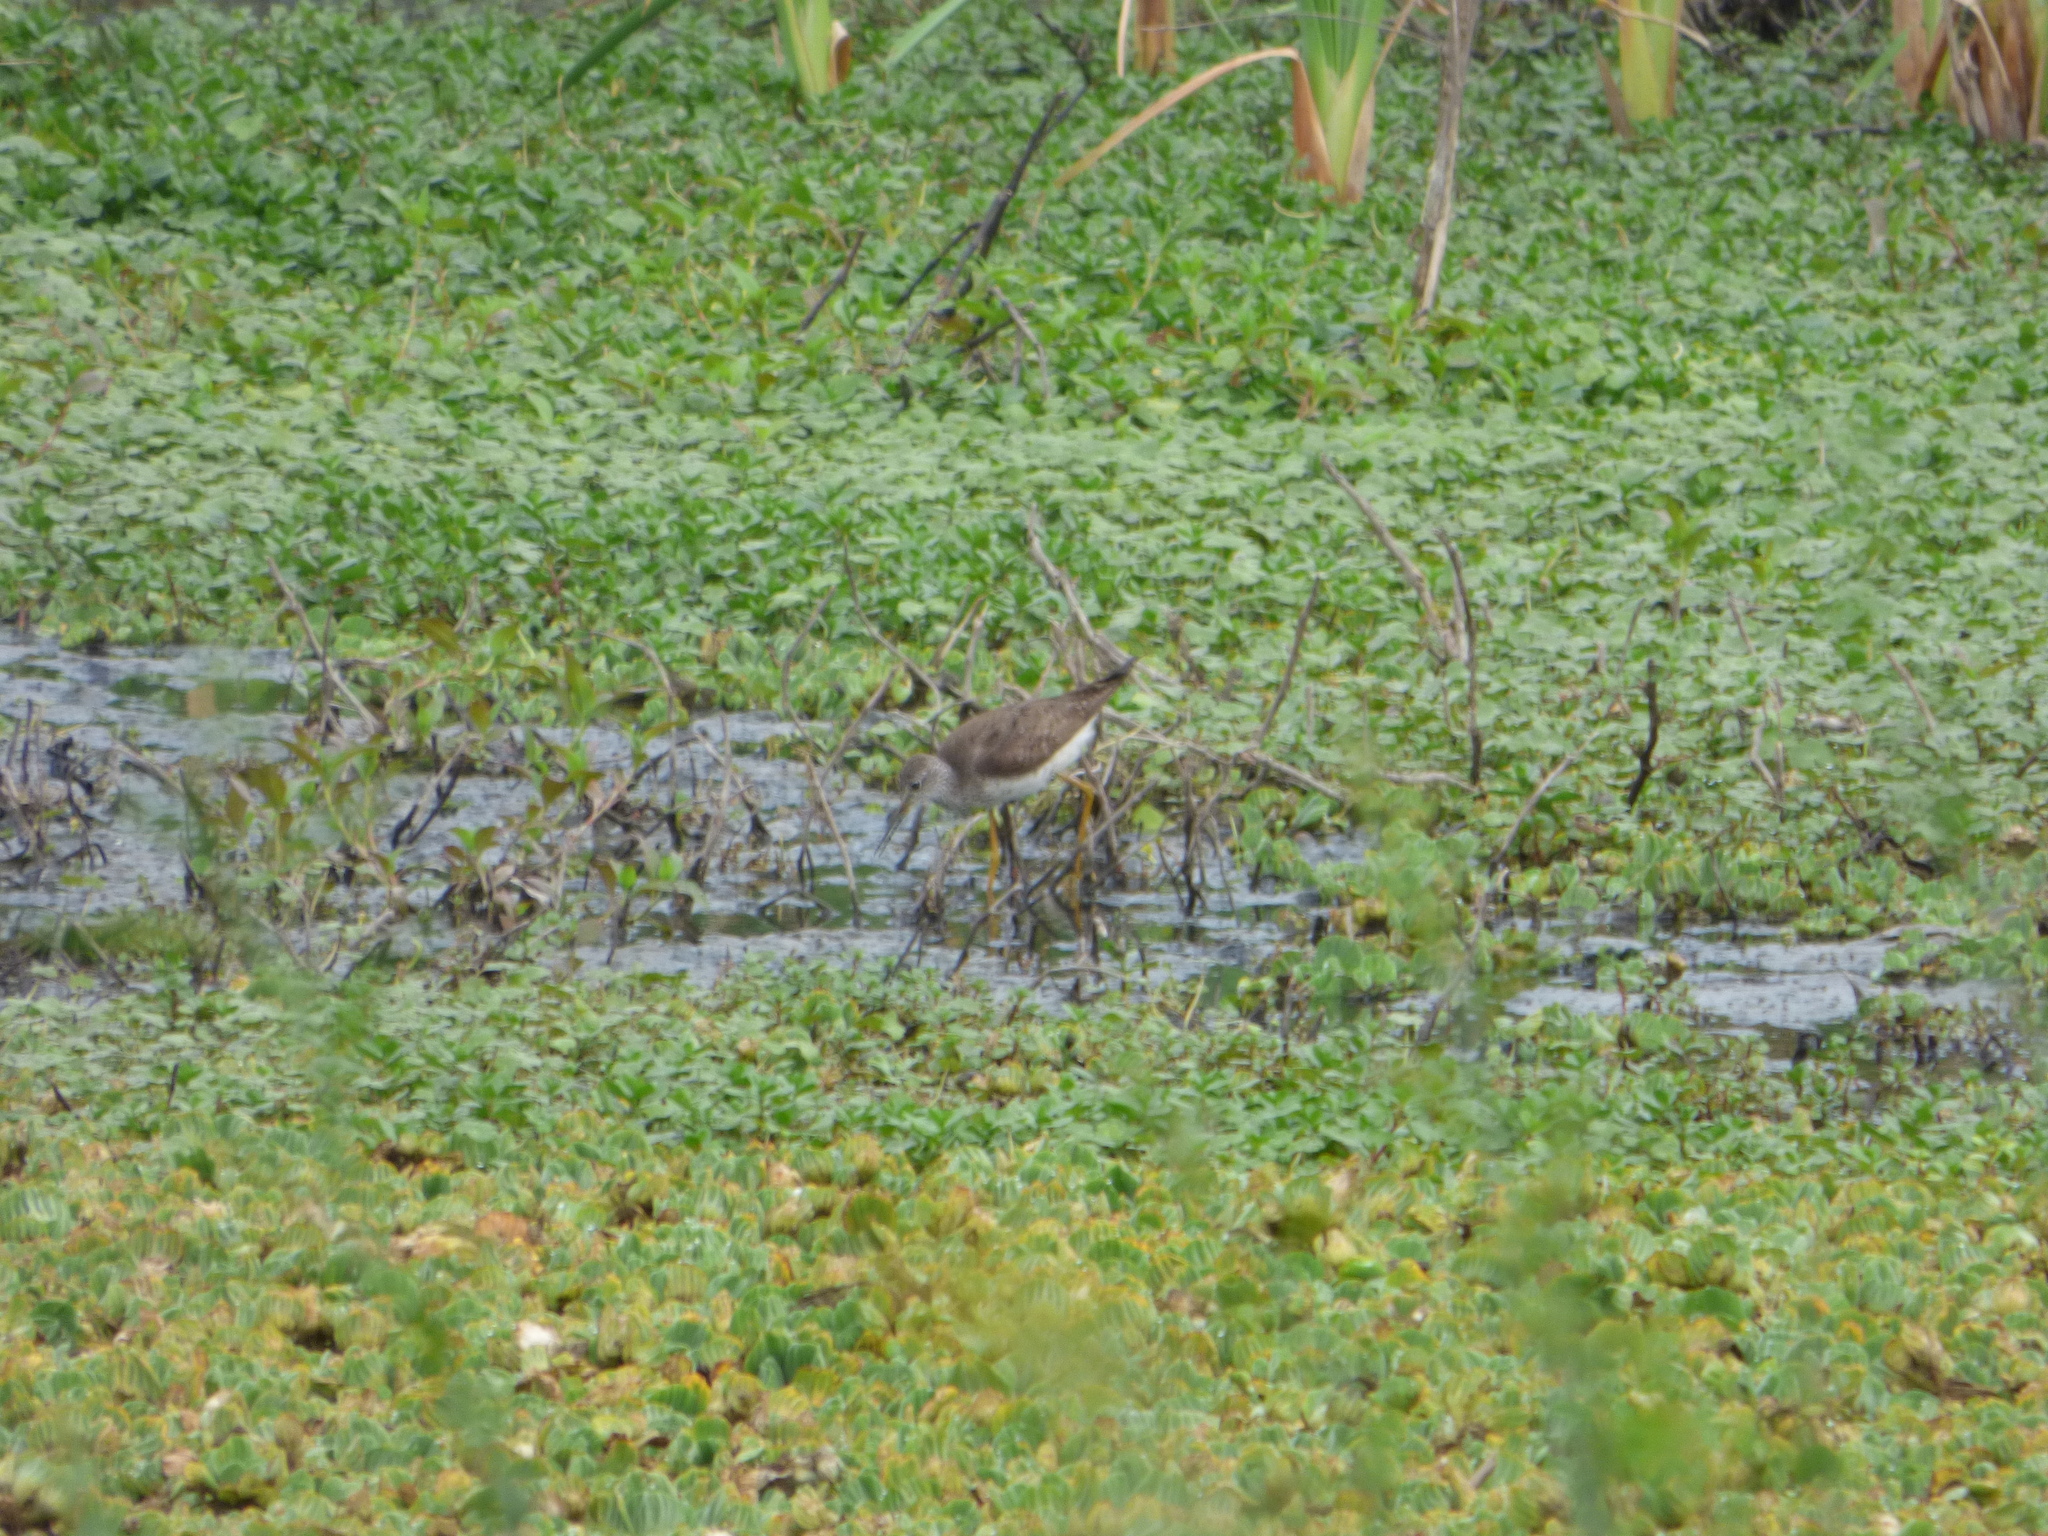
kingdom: Animalia
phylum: Chordata
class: Aves
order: Charadriiformes
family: Scolopacidae
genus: Tringa
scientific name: Tringa flavipes
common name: Lesser yellowlegs
